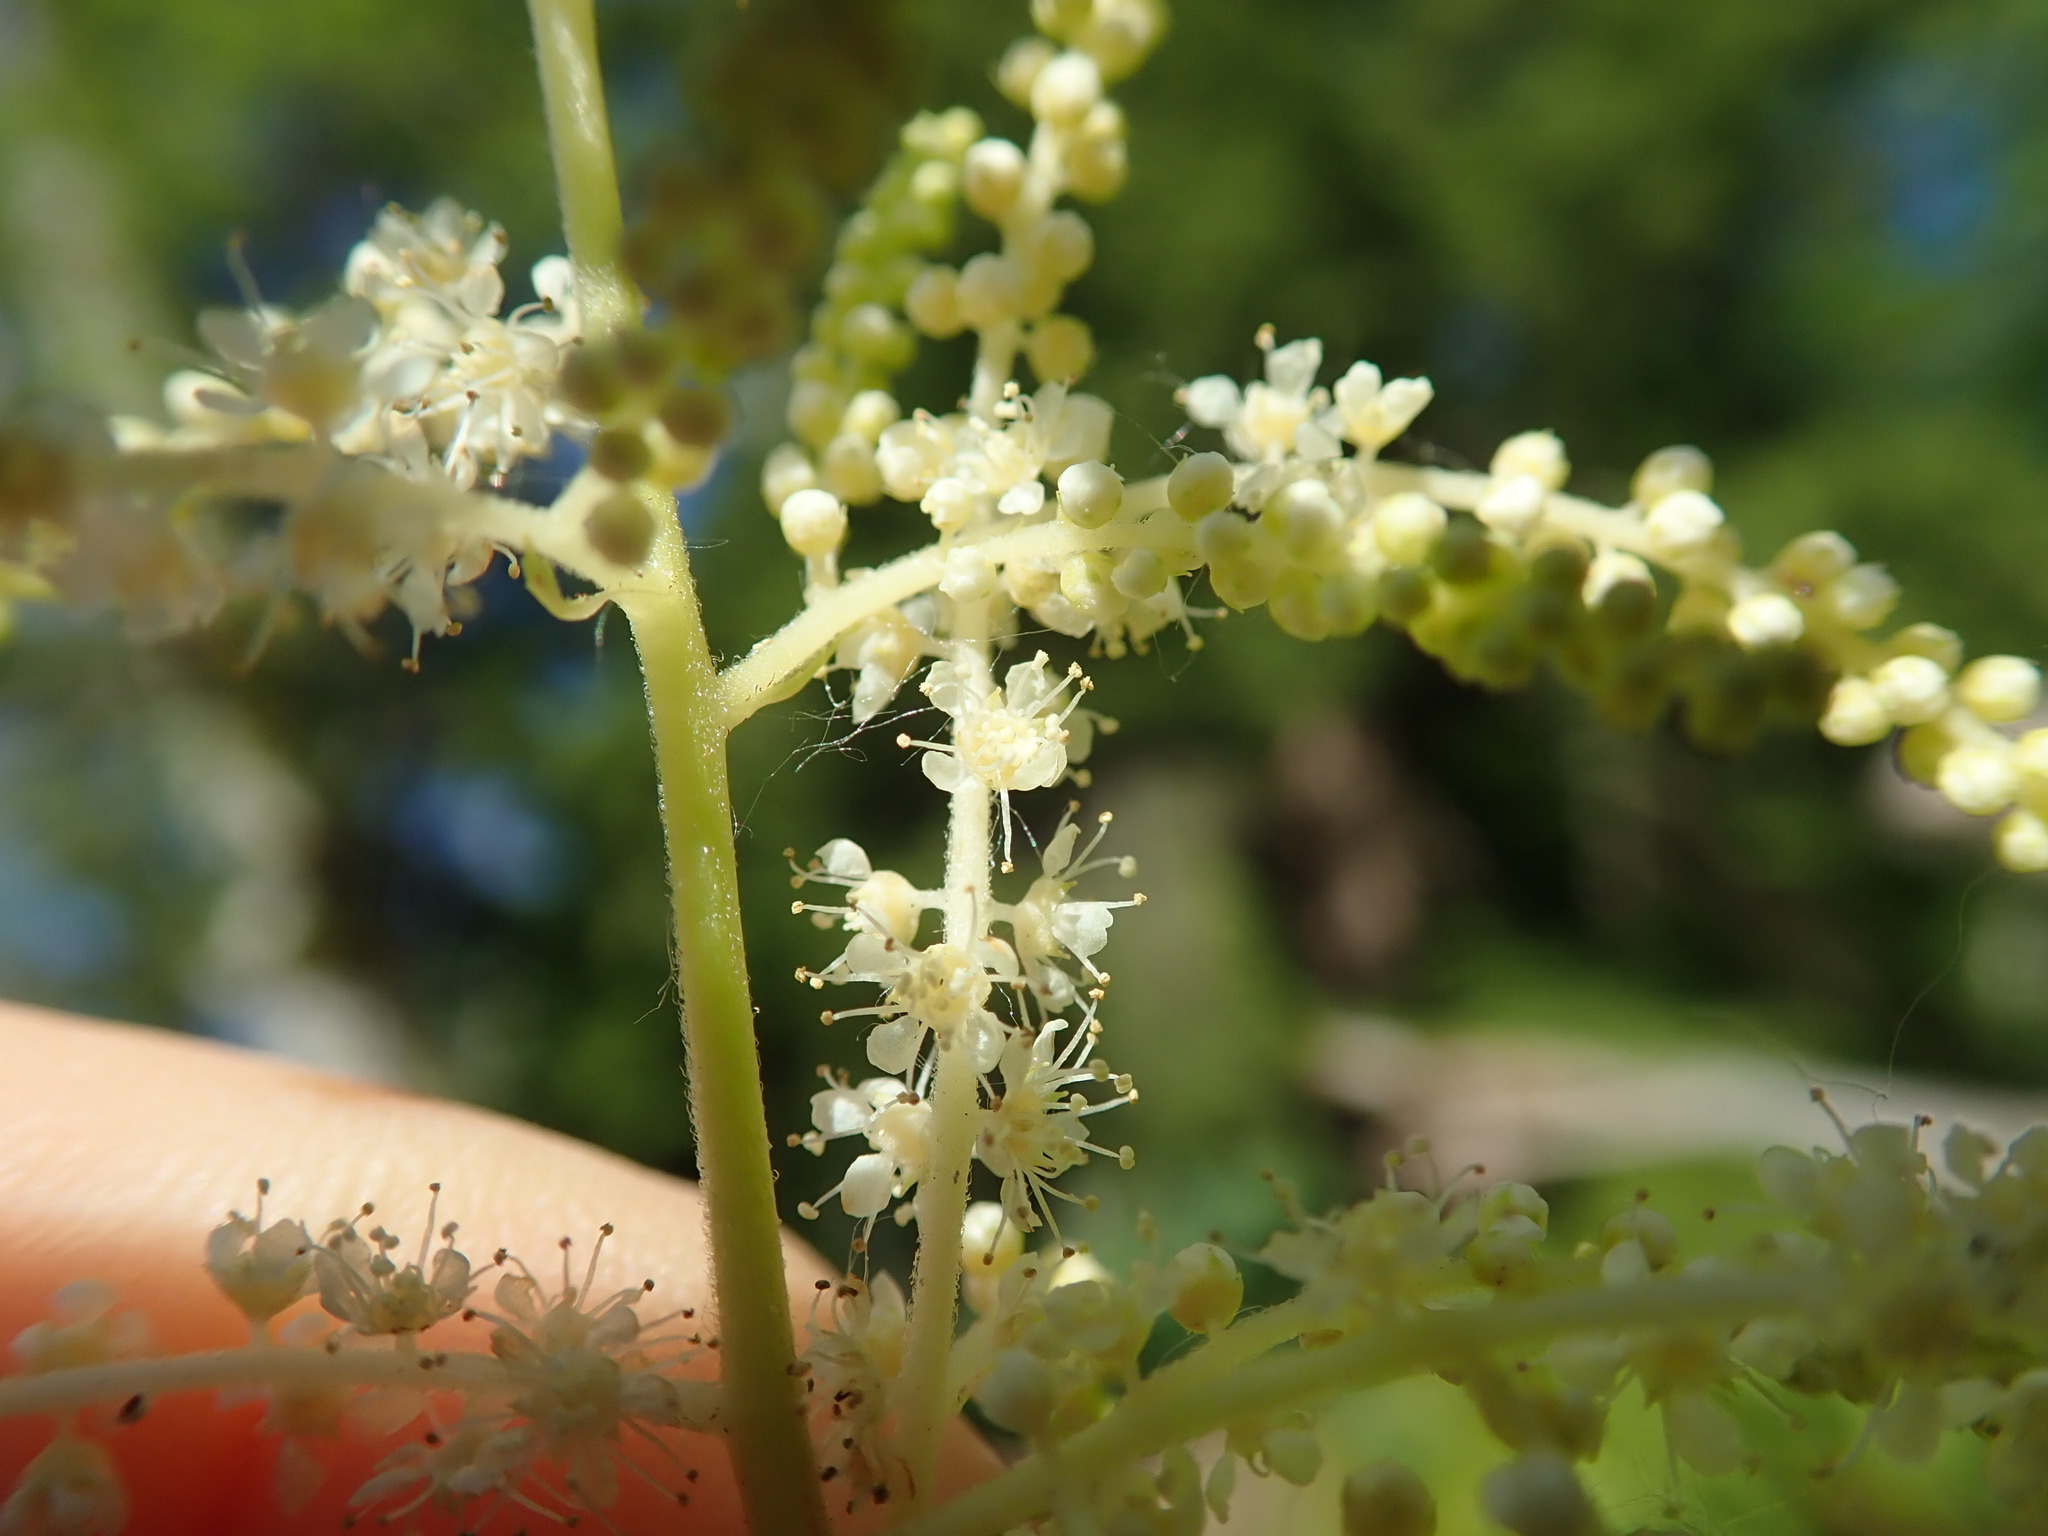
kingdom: Plantae
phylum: Tracheophyta
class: Magnoliopsida
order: Rosales
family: Rosaceae
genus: Aruncus
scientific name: Aruncus dioicus
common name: Buck's-beard
